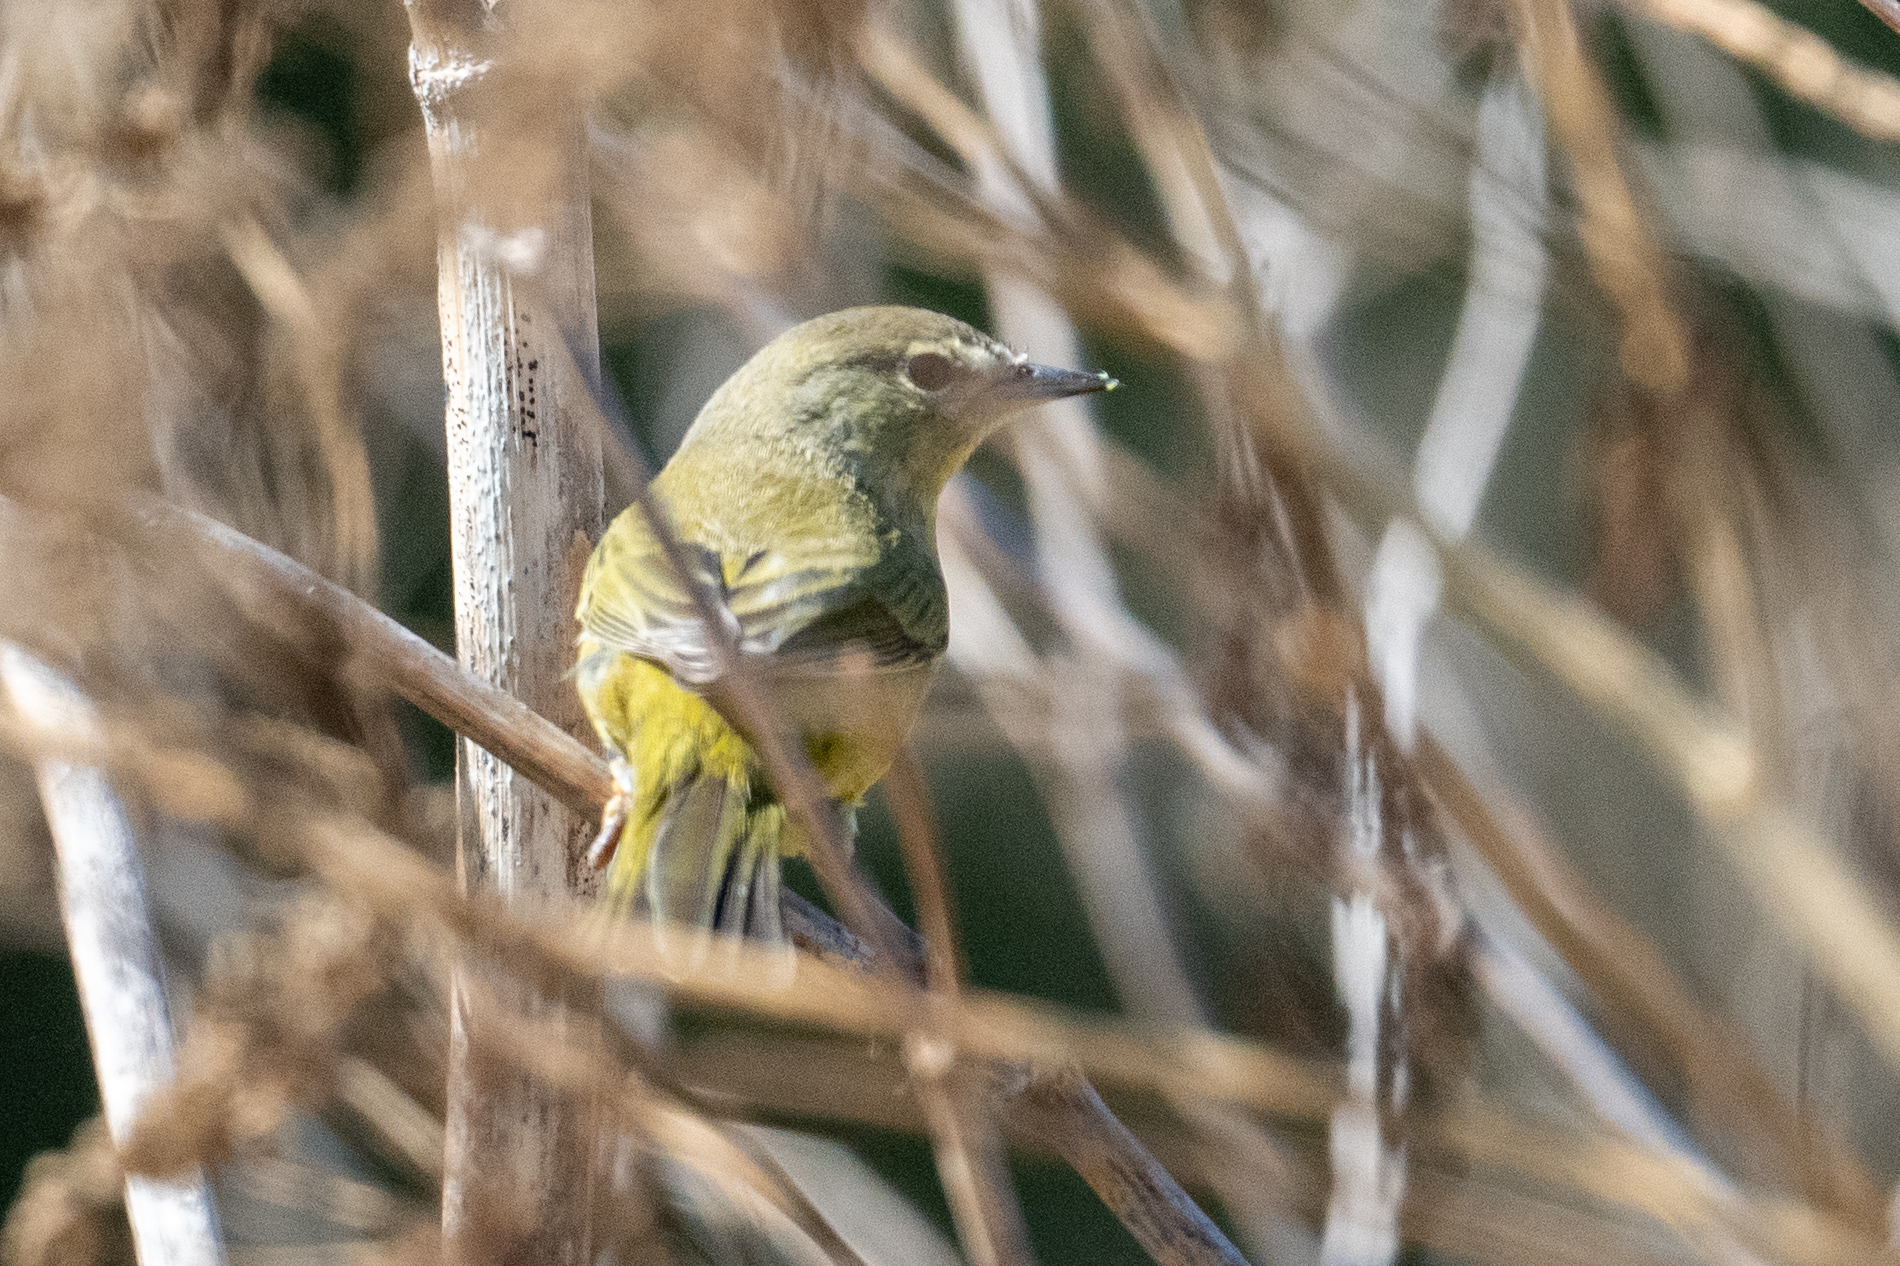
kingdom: Animalia
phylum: Chordata
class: Aves
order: Passeriformes
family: Parulidae
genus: Leiothlypis
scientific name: Leiothlypis celata
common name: Orange-crowned warbler
